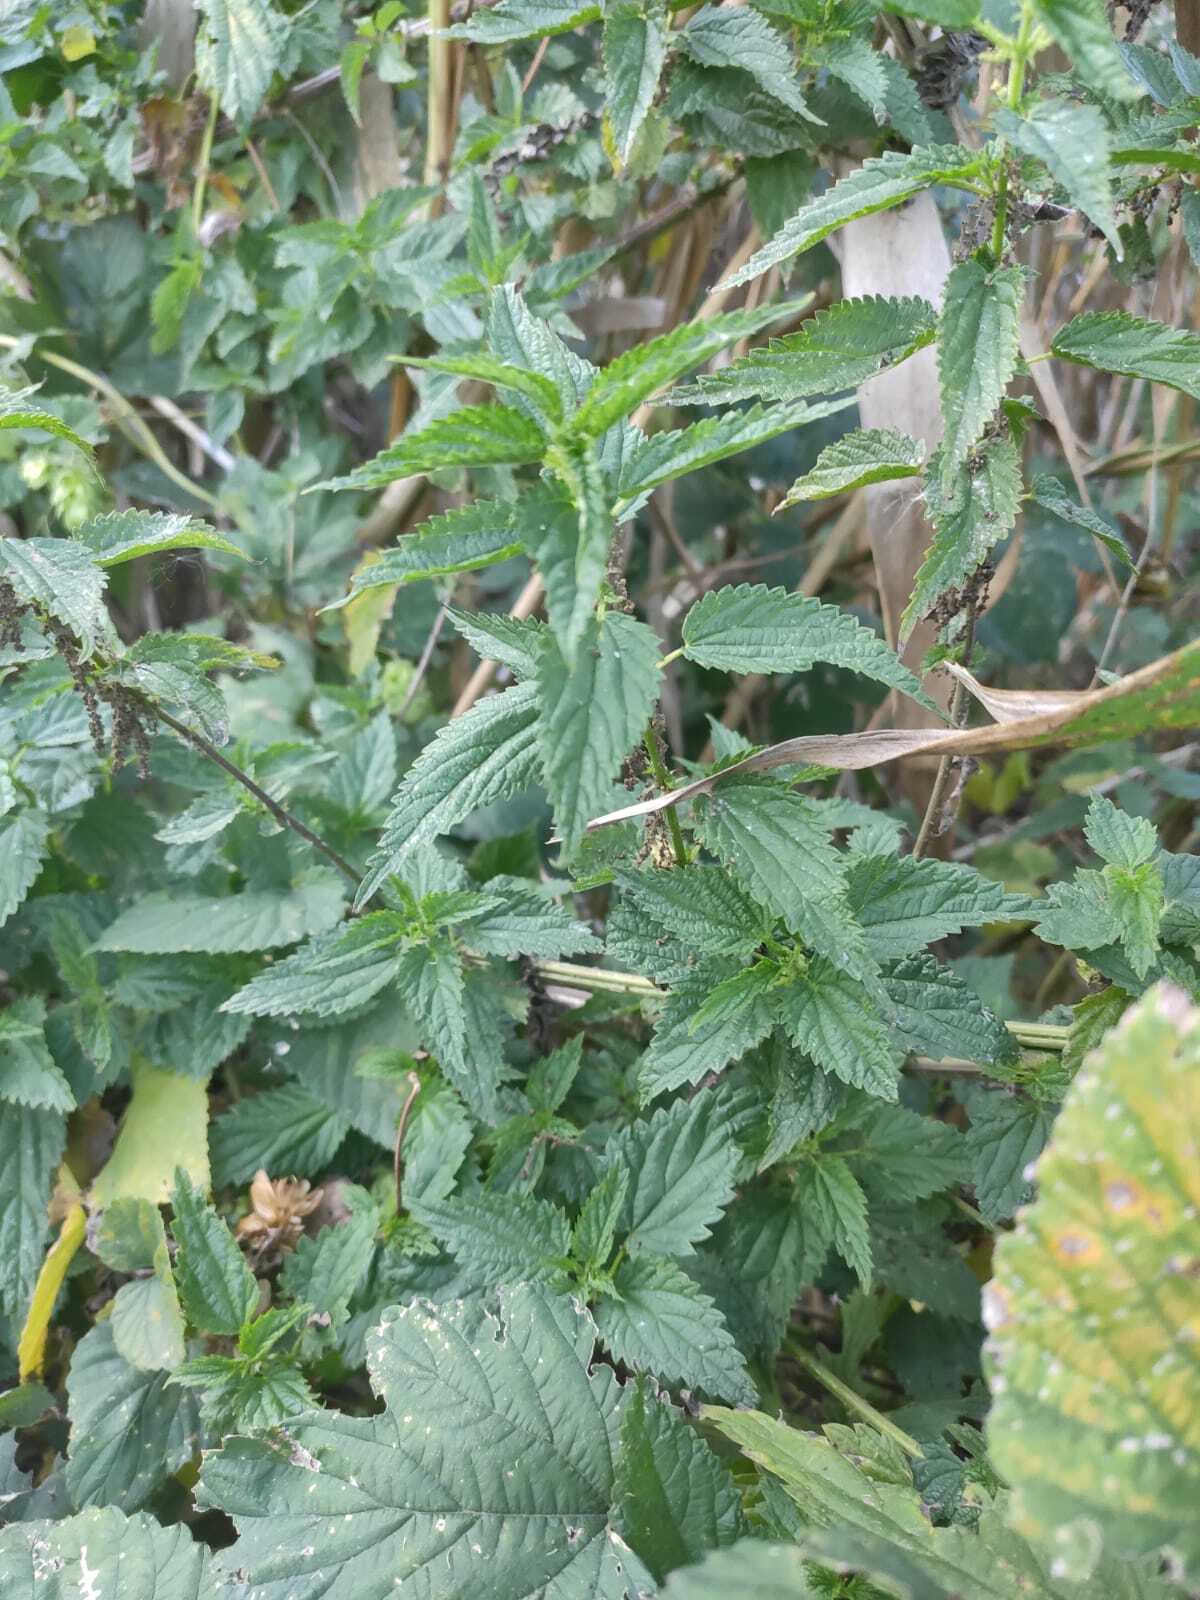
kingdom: Plantae
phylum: Tracheophyta
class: Magnoliopsida
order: Rosales
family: Urticaceae
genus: Urtica
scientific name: Urtica dioica
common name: Common nettle
